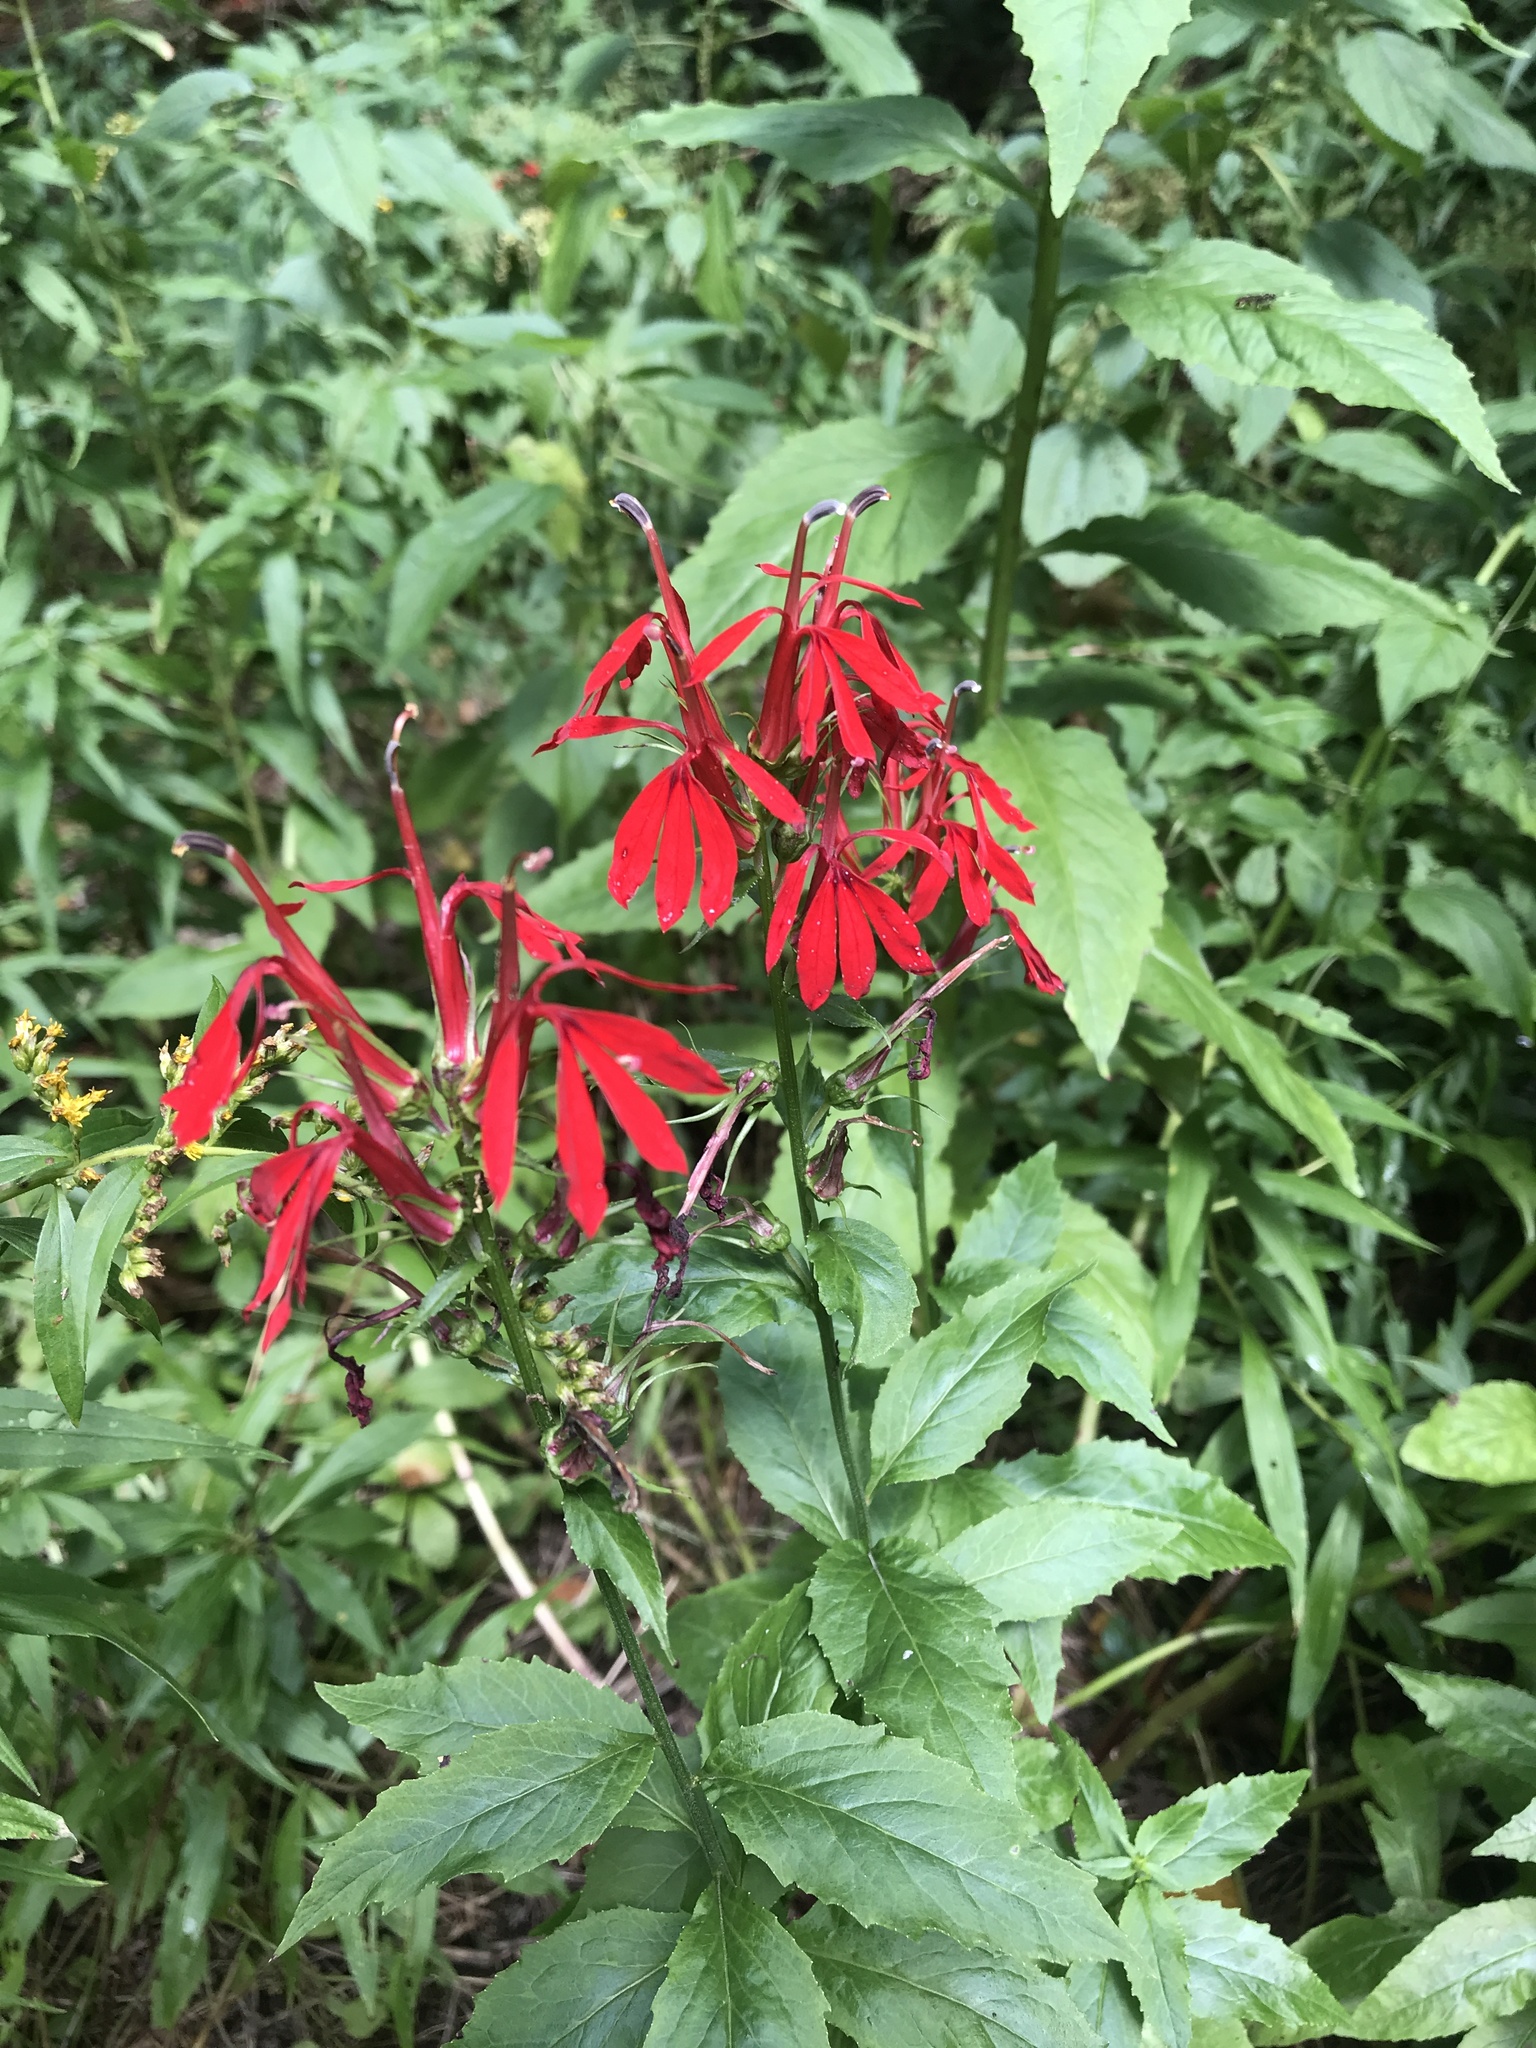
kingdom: Plantae
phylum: Tracheophyta
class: Magnoliopsida
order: Asterales
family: Campanulaceae
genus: Lobelia
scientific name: Lobelia cardinalis
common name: Cardinal flower
